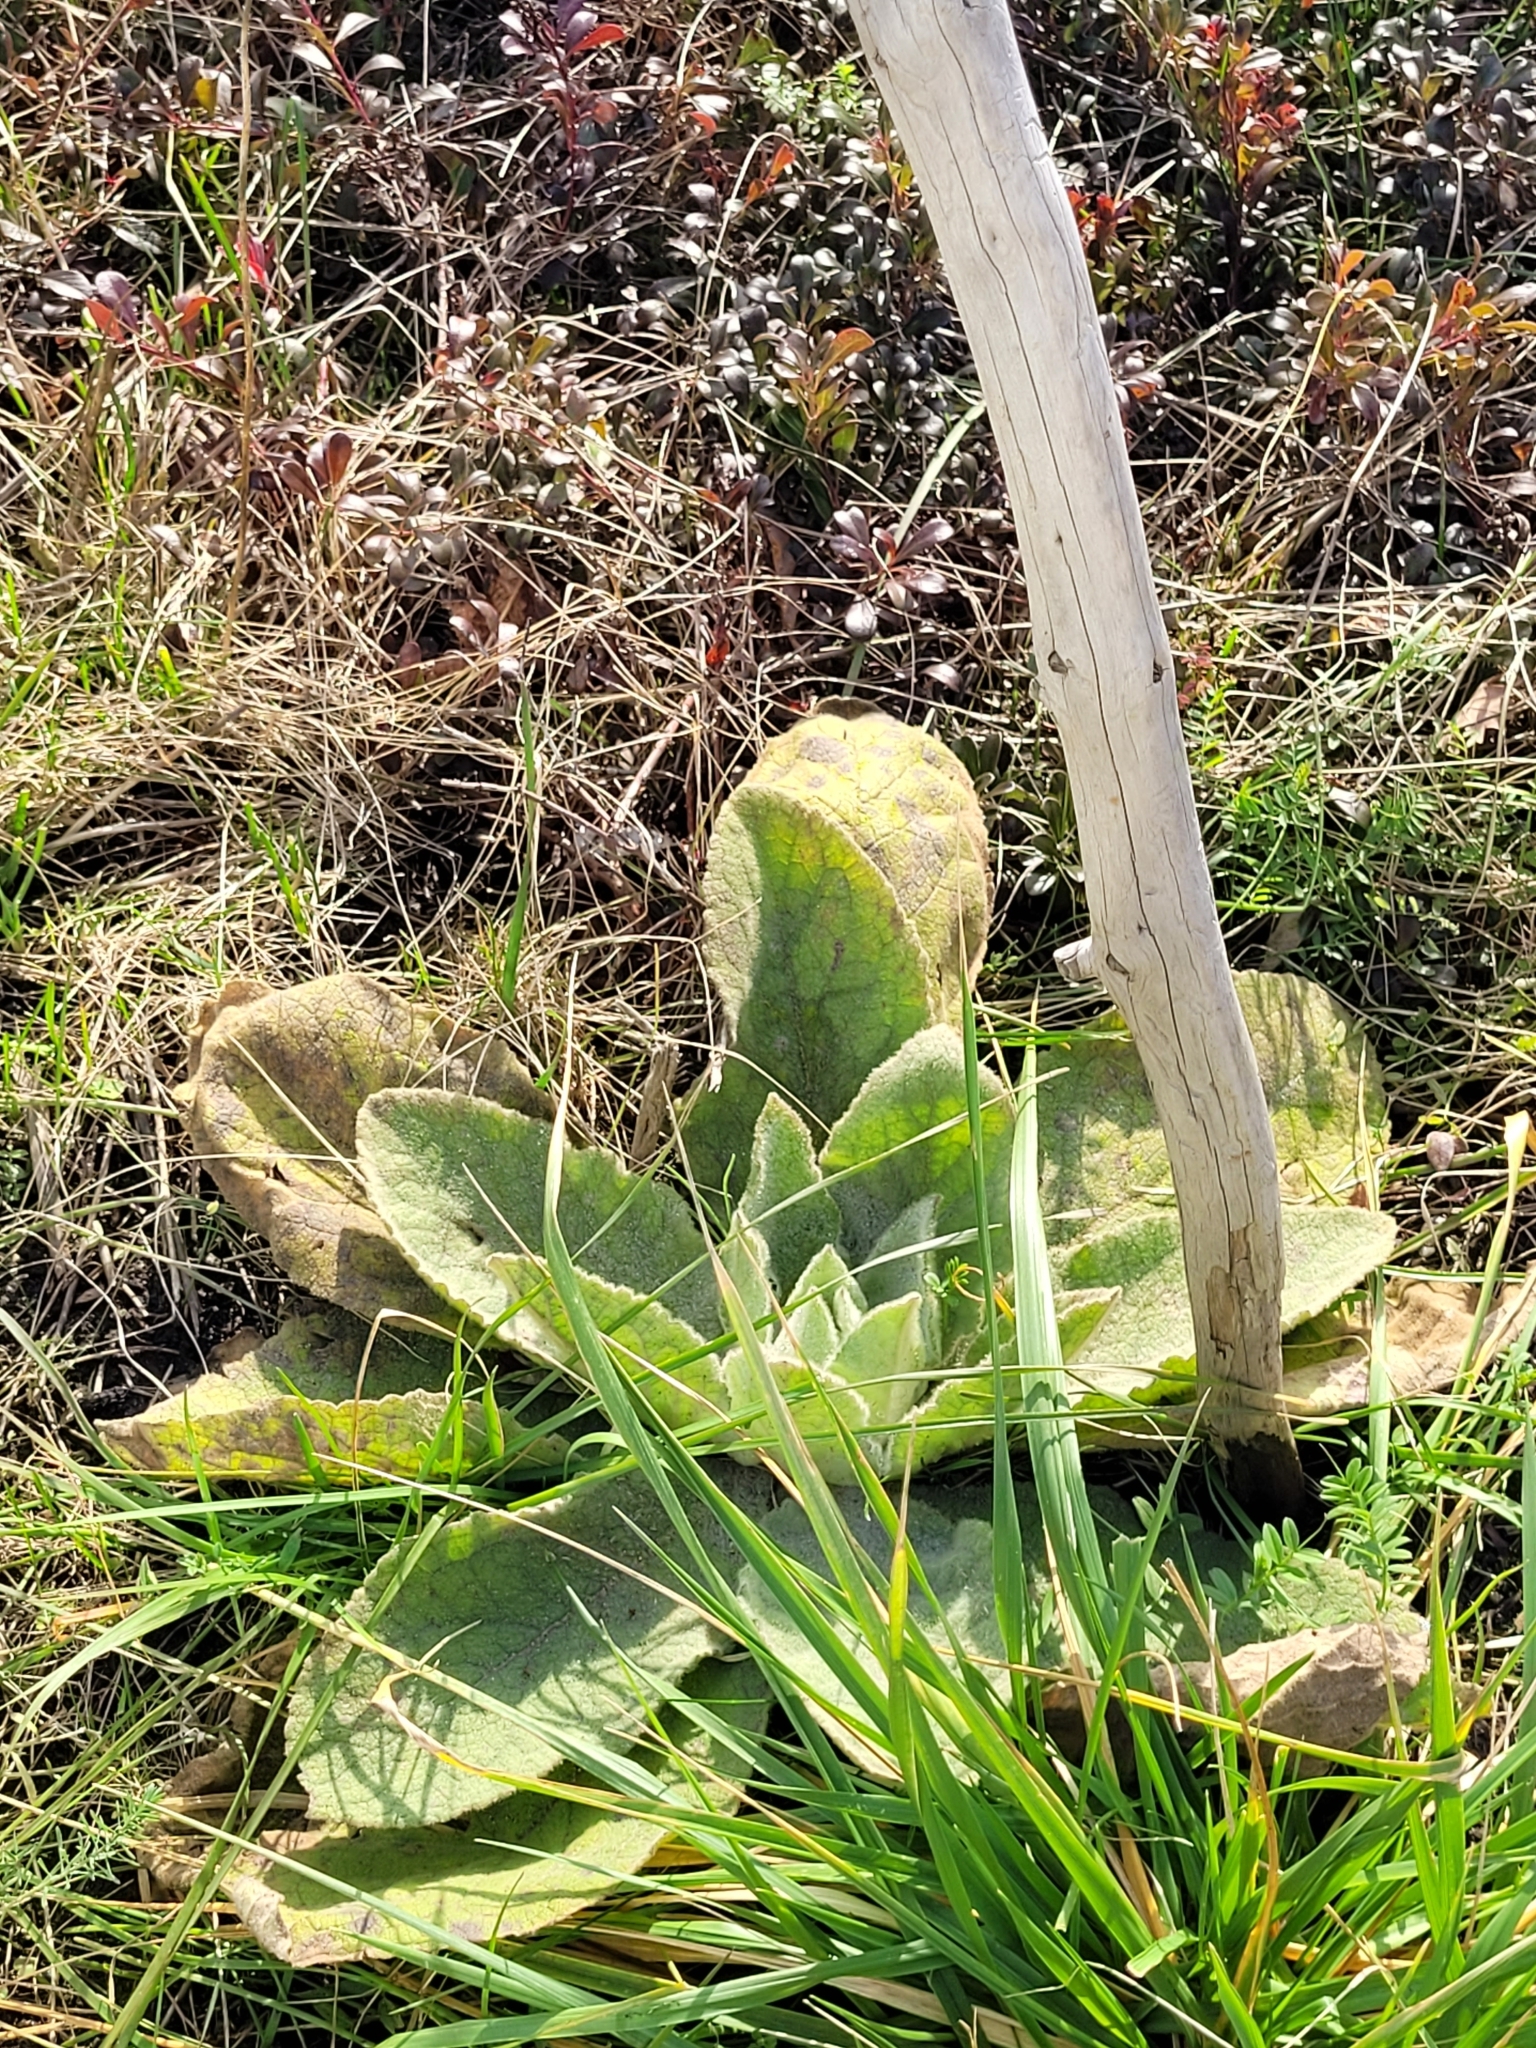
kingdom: Plantae
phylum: Tracheophyta
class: Magnoliopsida
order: Lamiales
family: Scrophulariaceae
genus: Verbascum
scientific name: Verbascum thapsus
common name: Common mullein
